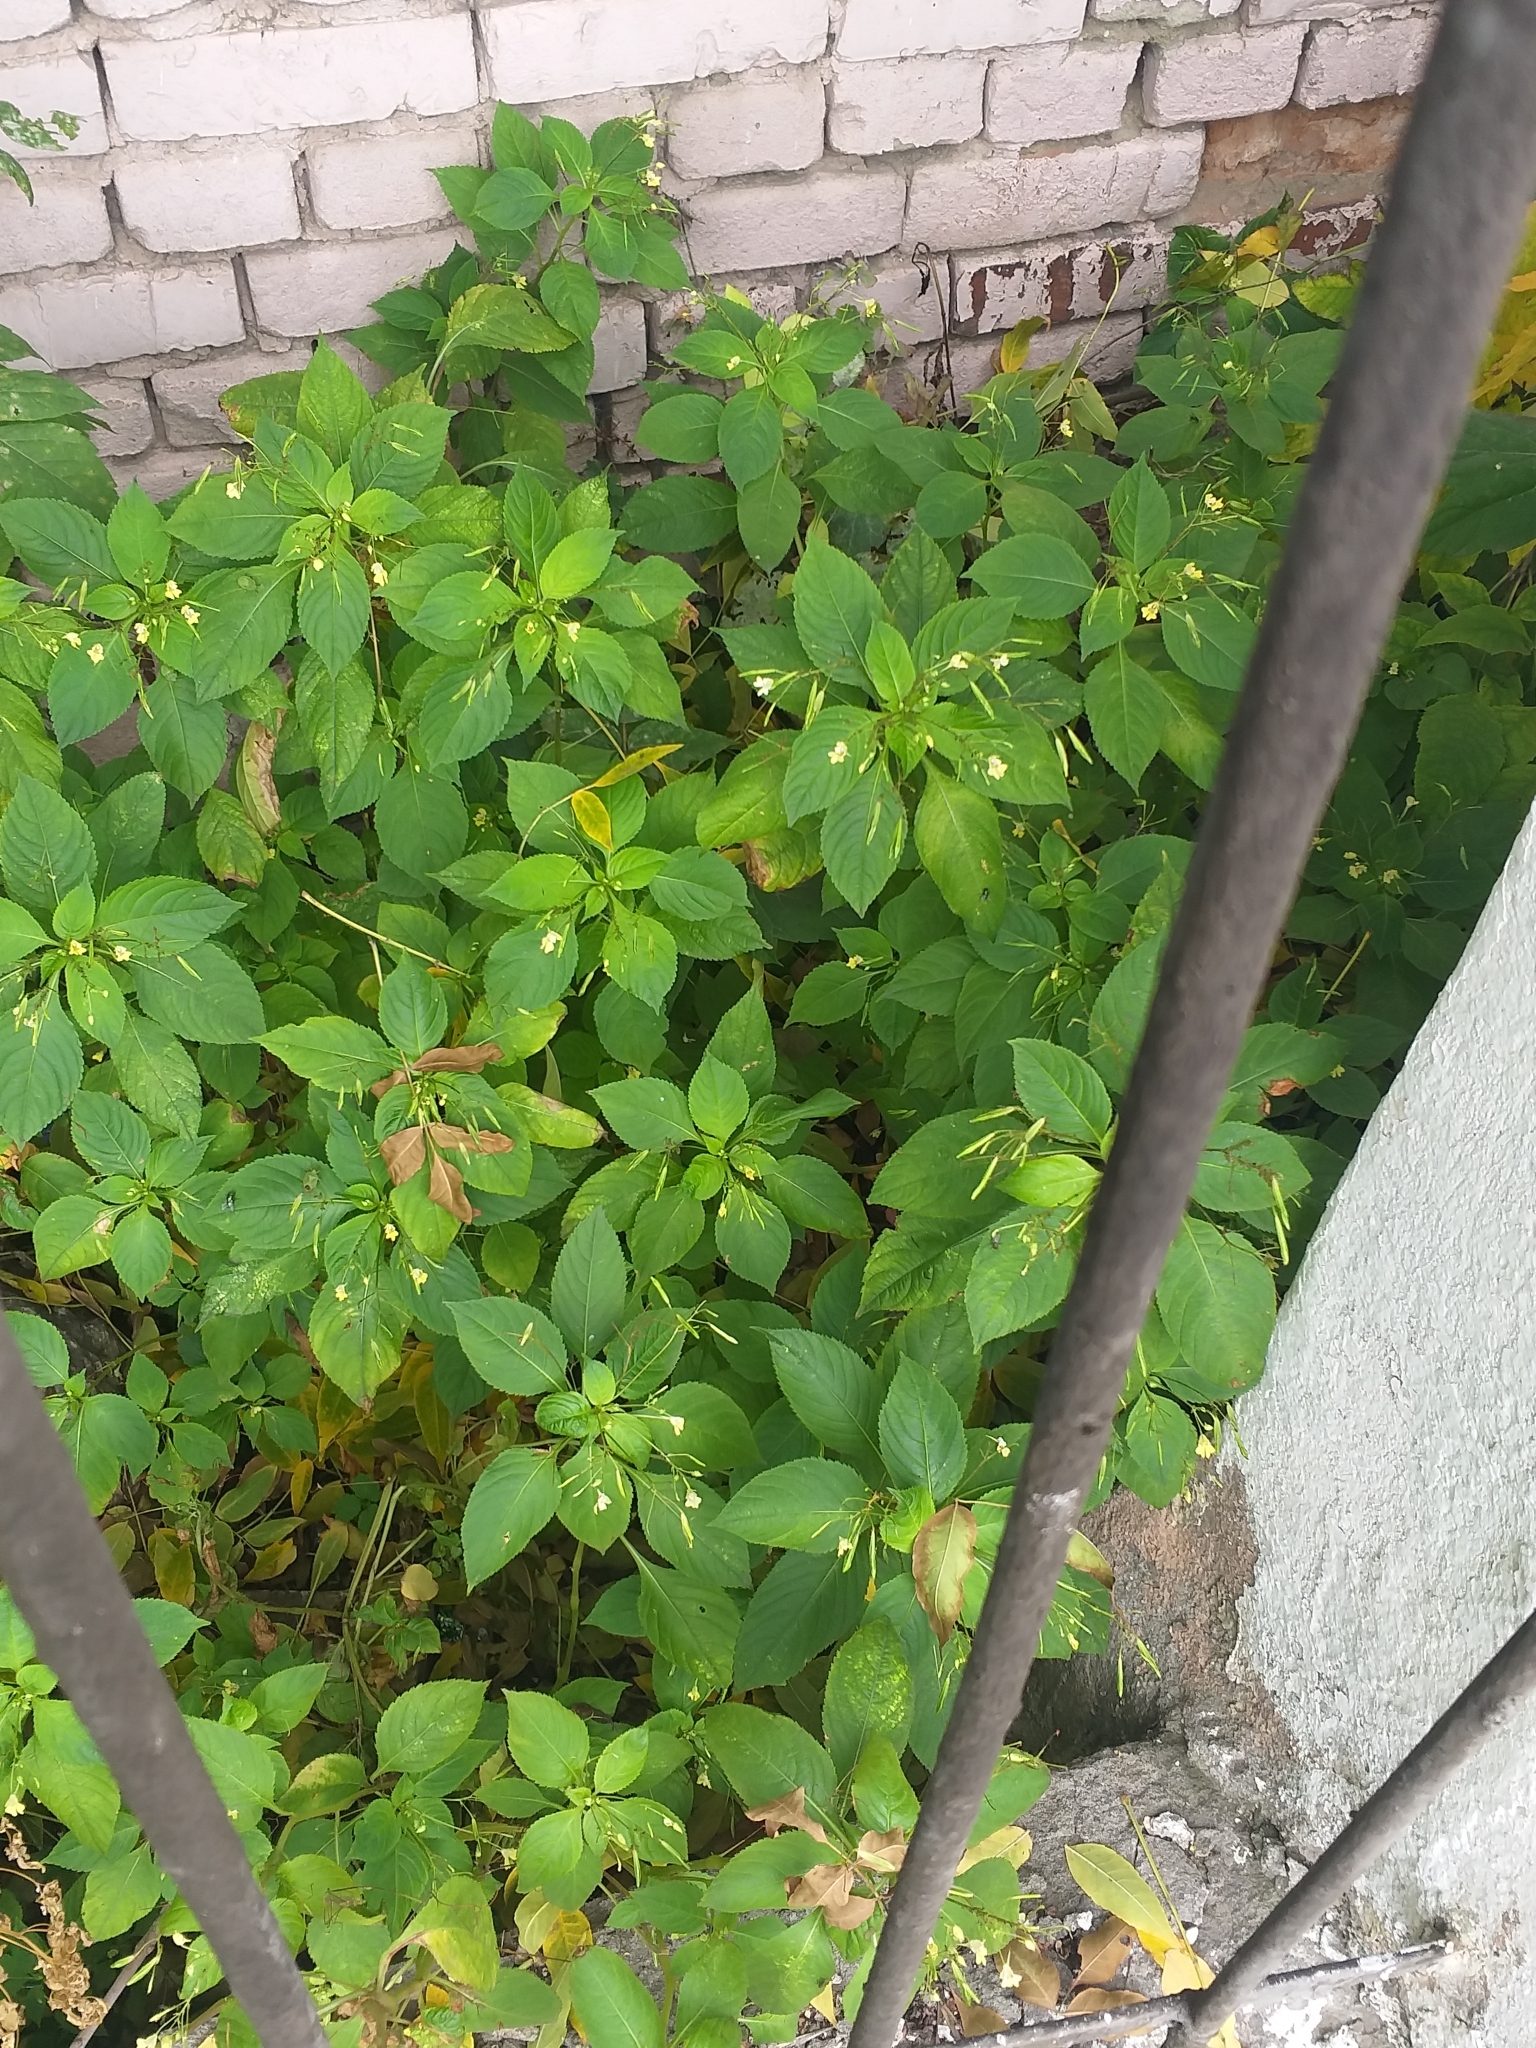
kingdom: Plantae
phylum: Tracheophyta
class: Magnoliopsida
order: Ericales
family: Balsaminaceae
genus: Impatiens
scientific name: Impatiens parviflora
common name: Small balsam
